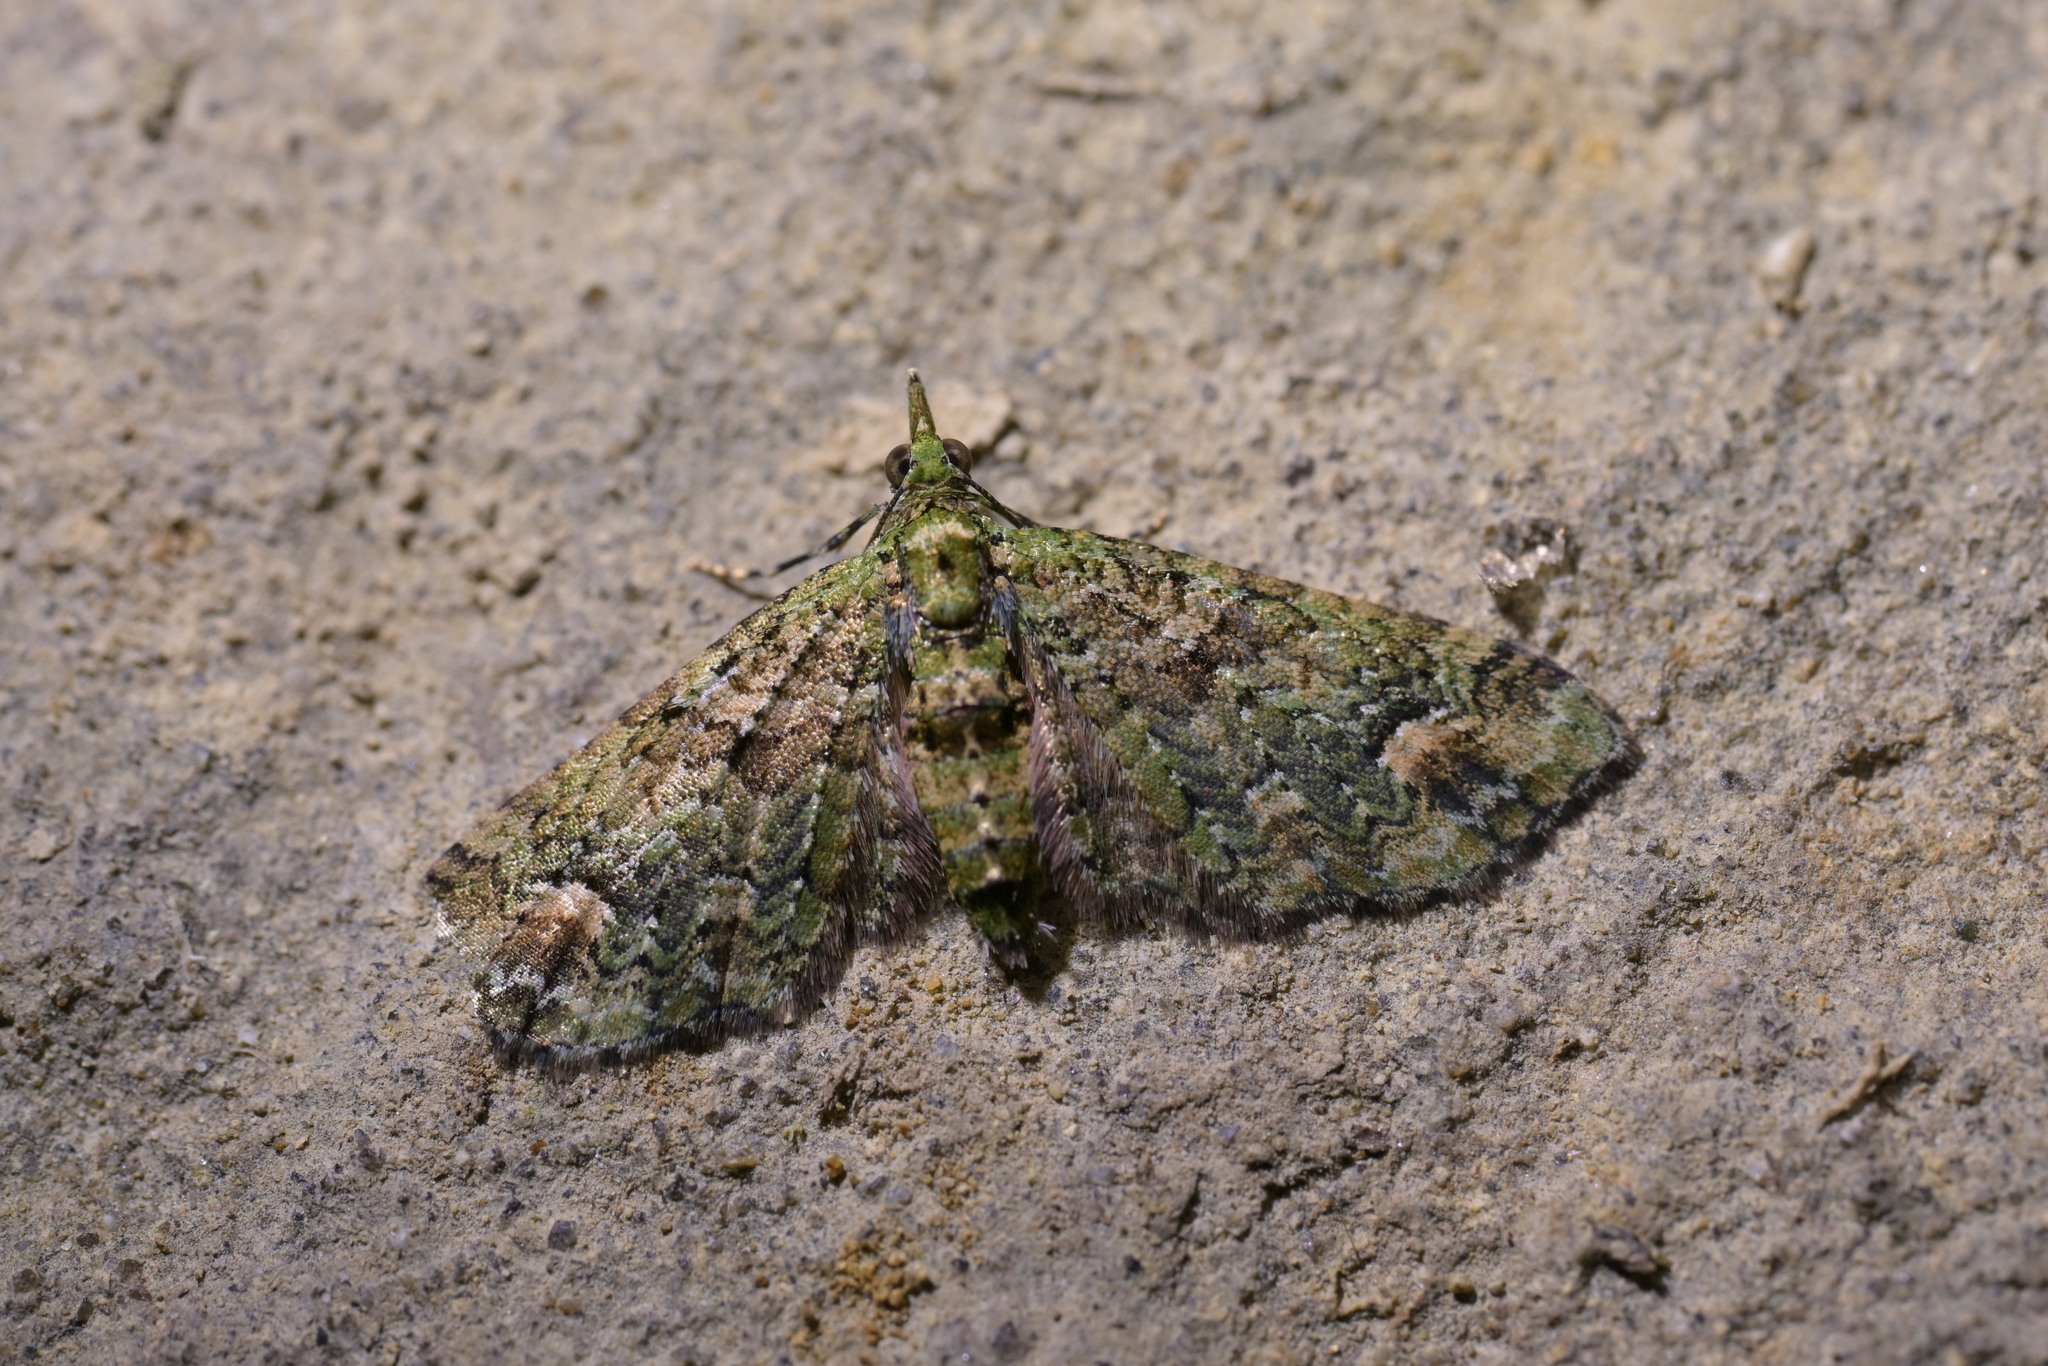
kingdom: Animalia
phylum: Arthropoda
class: Insecta
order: Lepidoptera
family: Geometridae
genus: Idaea
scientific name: Idaea mutanda
